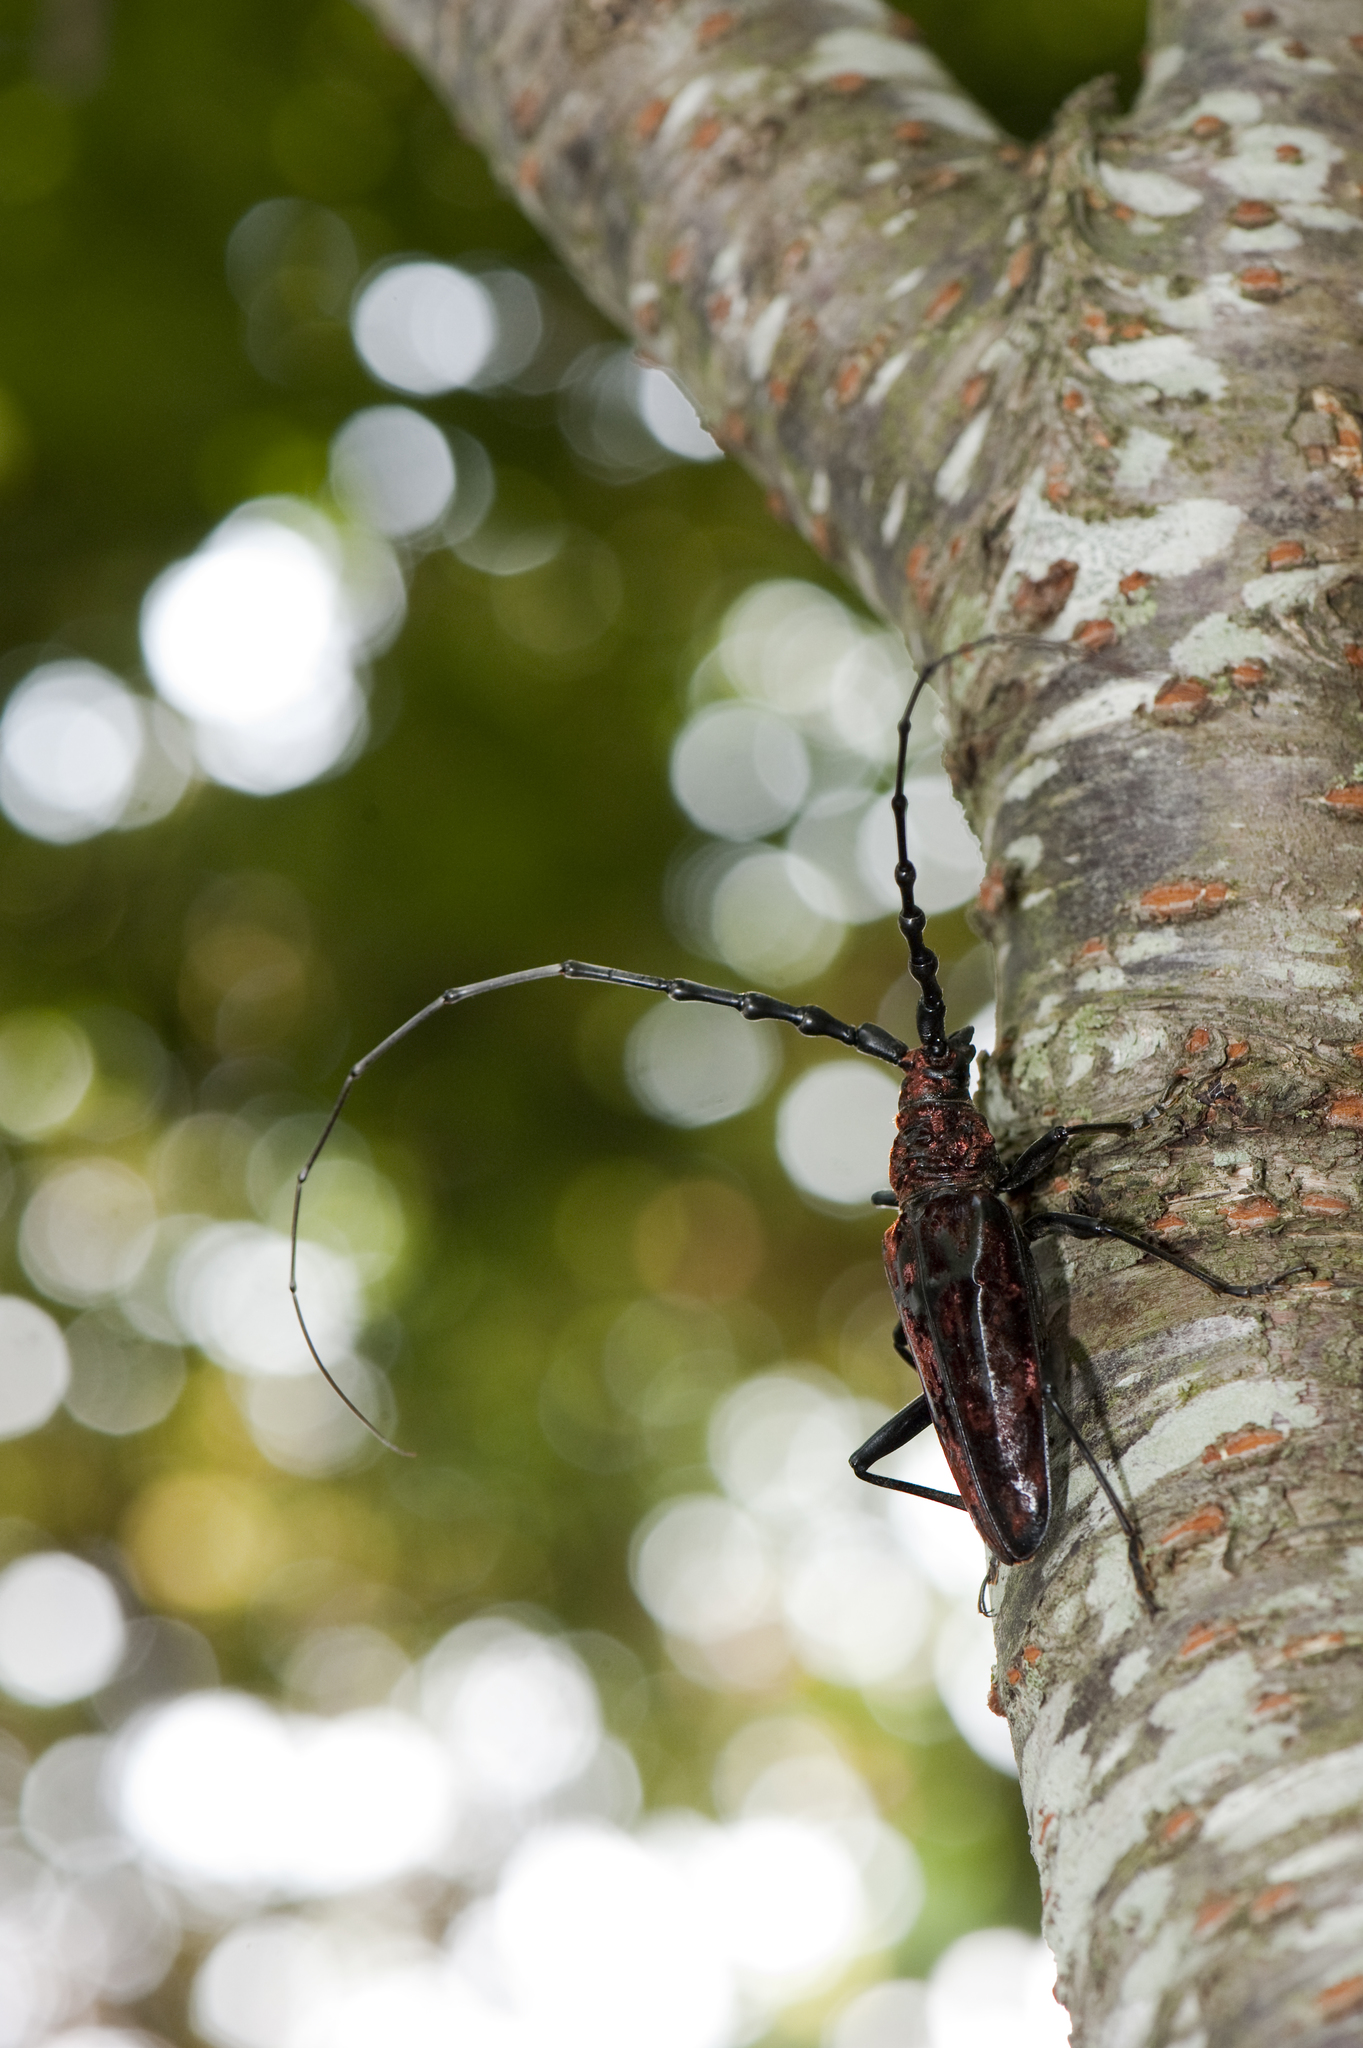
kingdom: Animalia
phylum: Arthropoda
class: Insecta
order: Coleoptera
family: Cerambycidae
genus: Hemadius
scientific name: Hemadius oenochrous
